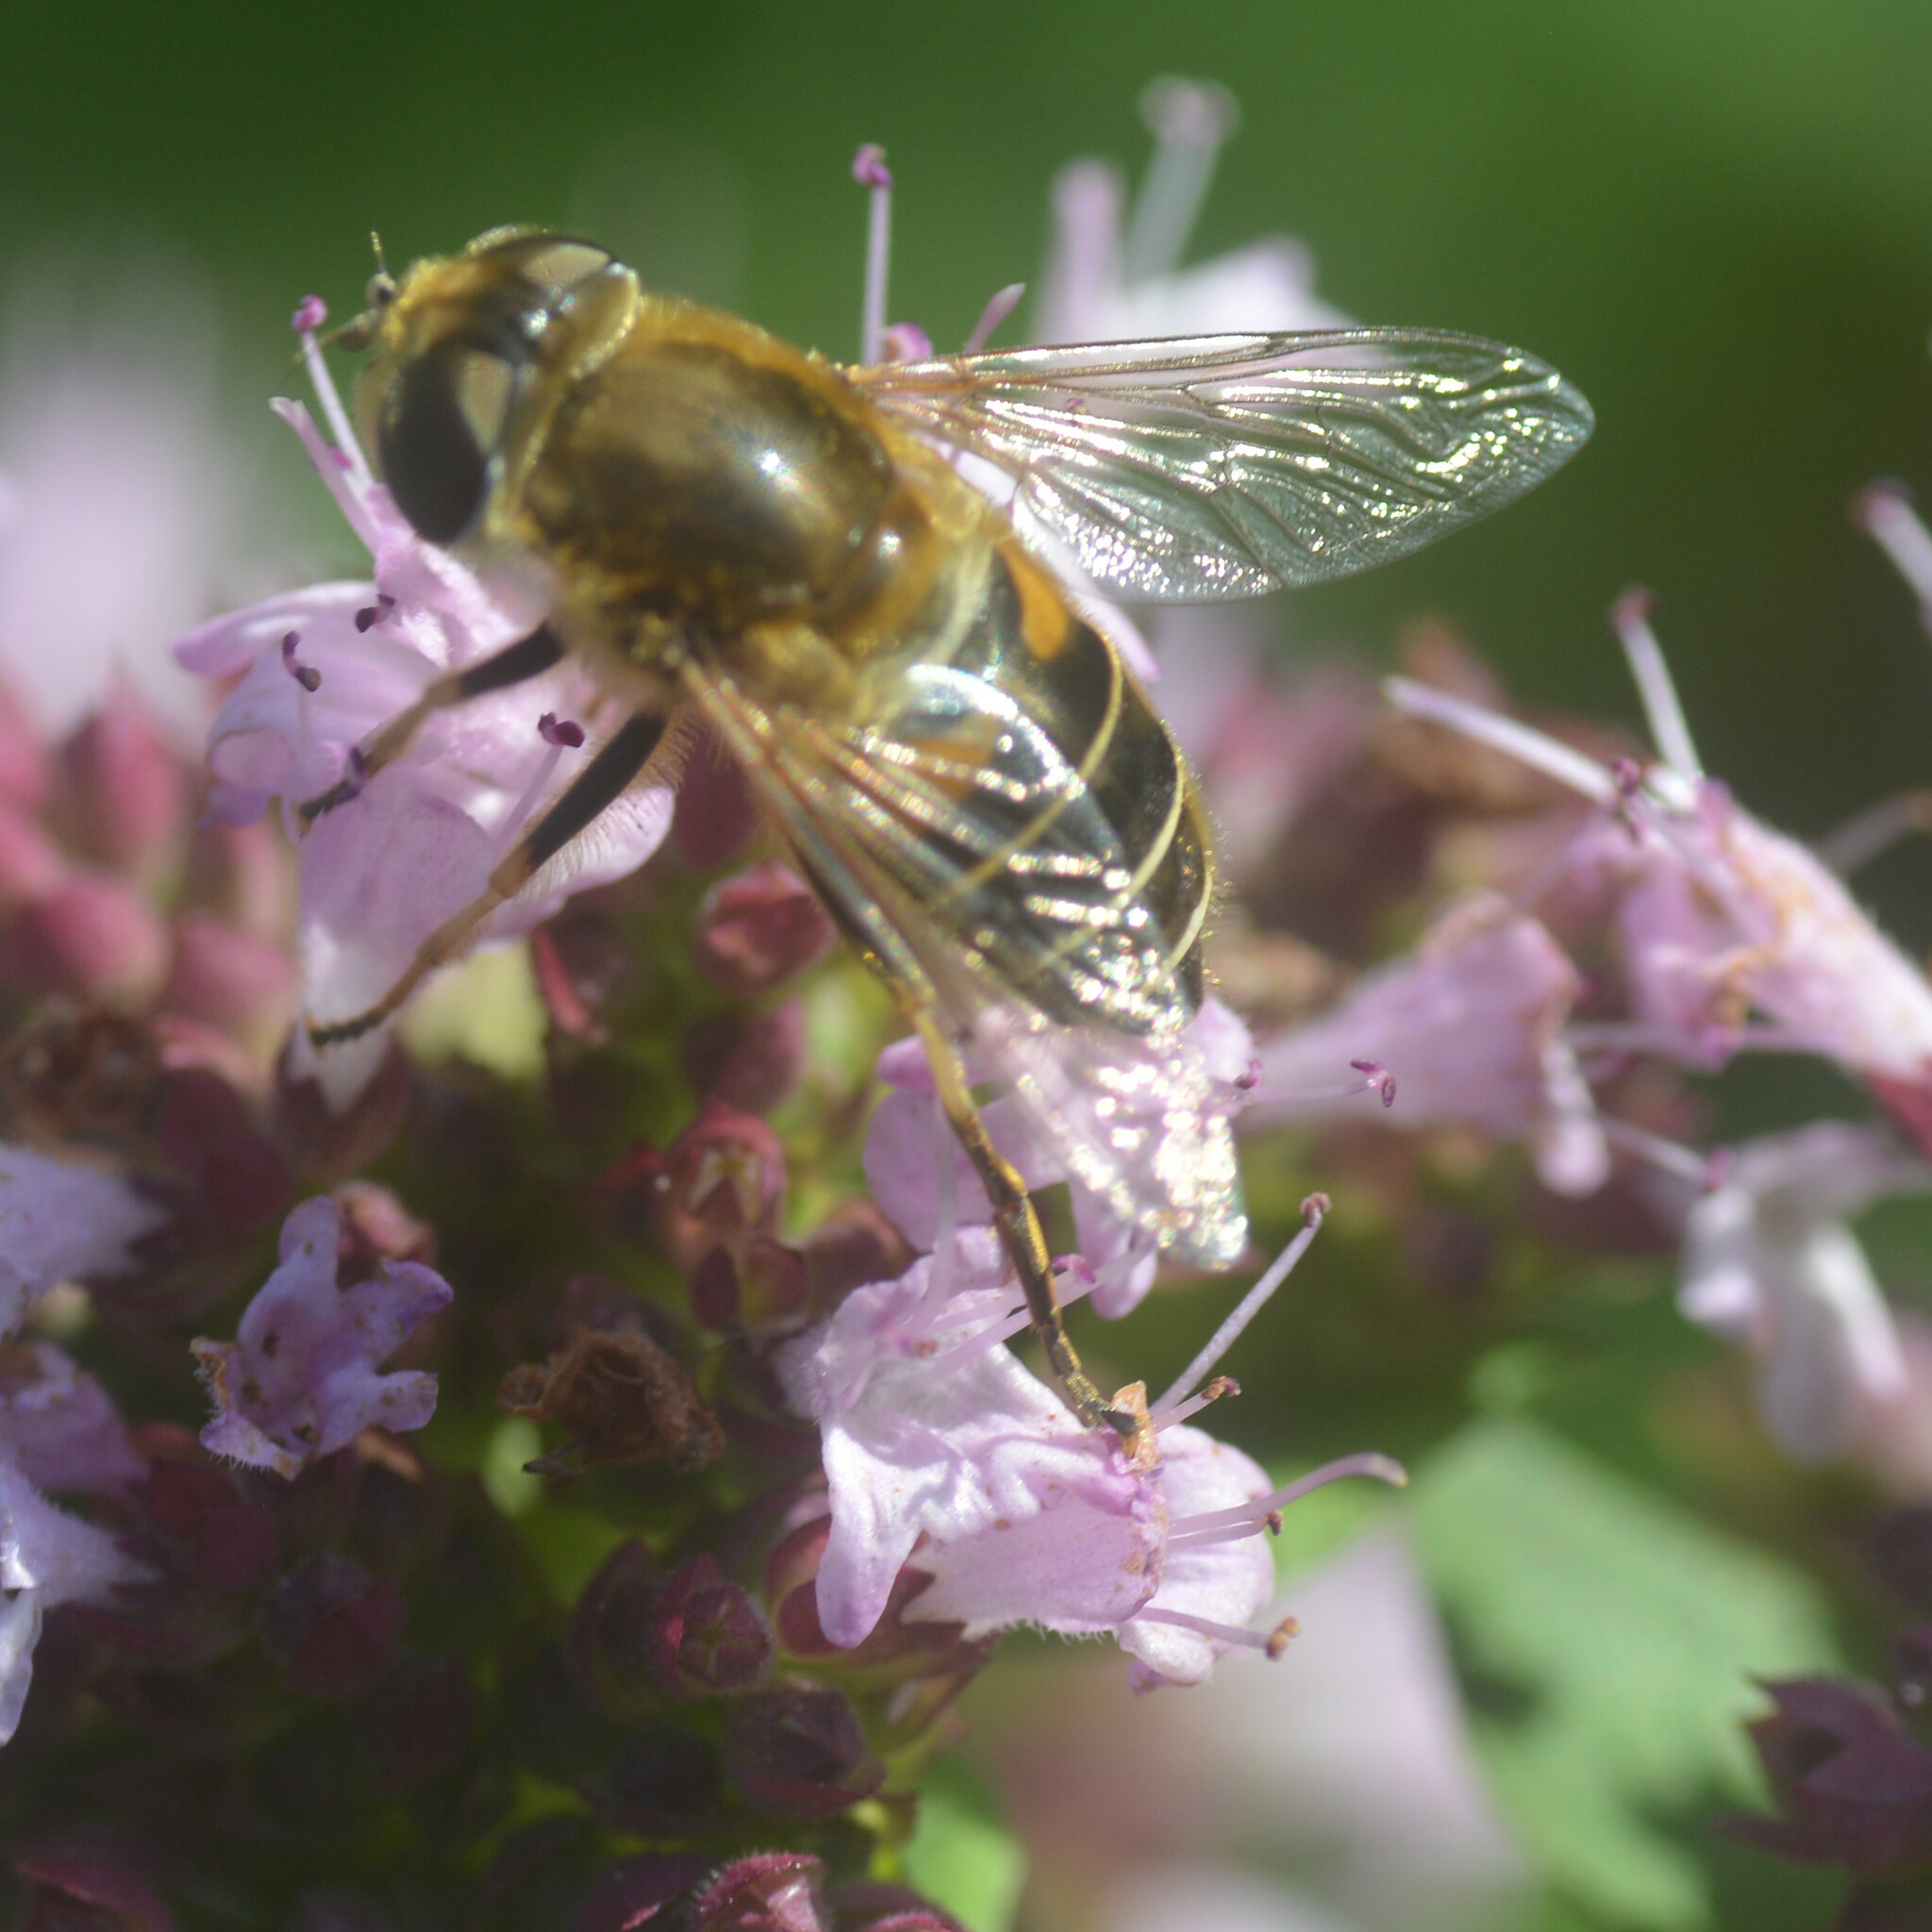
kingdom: Animalia
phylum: Arthropoda
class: Insecta
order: Diptera
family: Syrphidae
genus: Eristalis
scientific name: Eristalis nemorum
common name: Orange-spined drone fly
